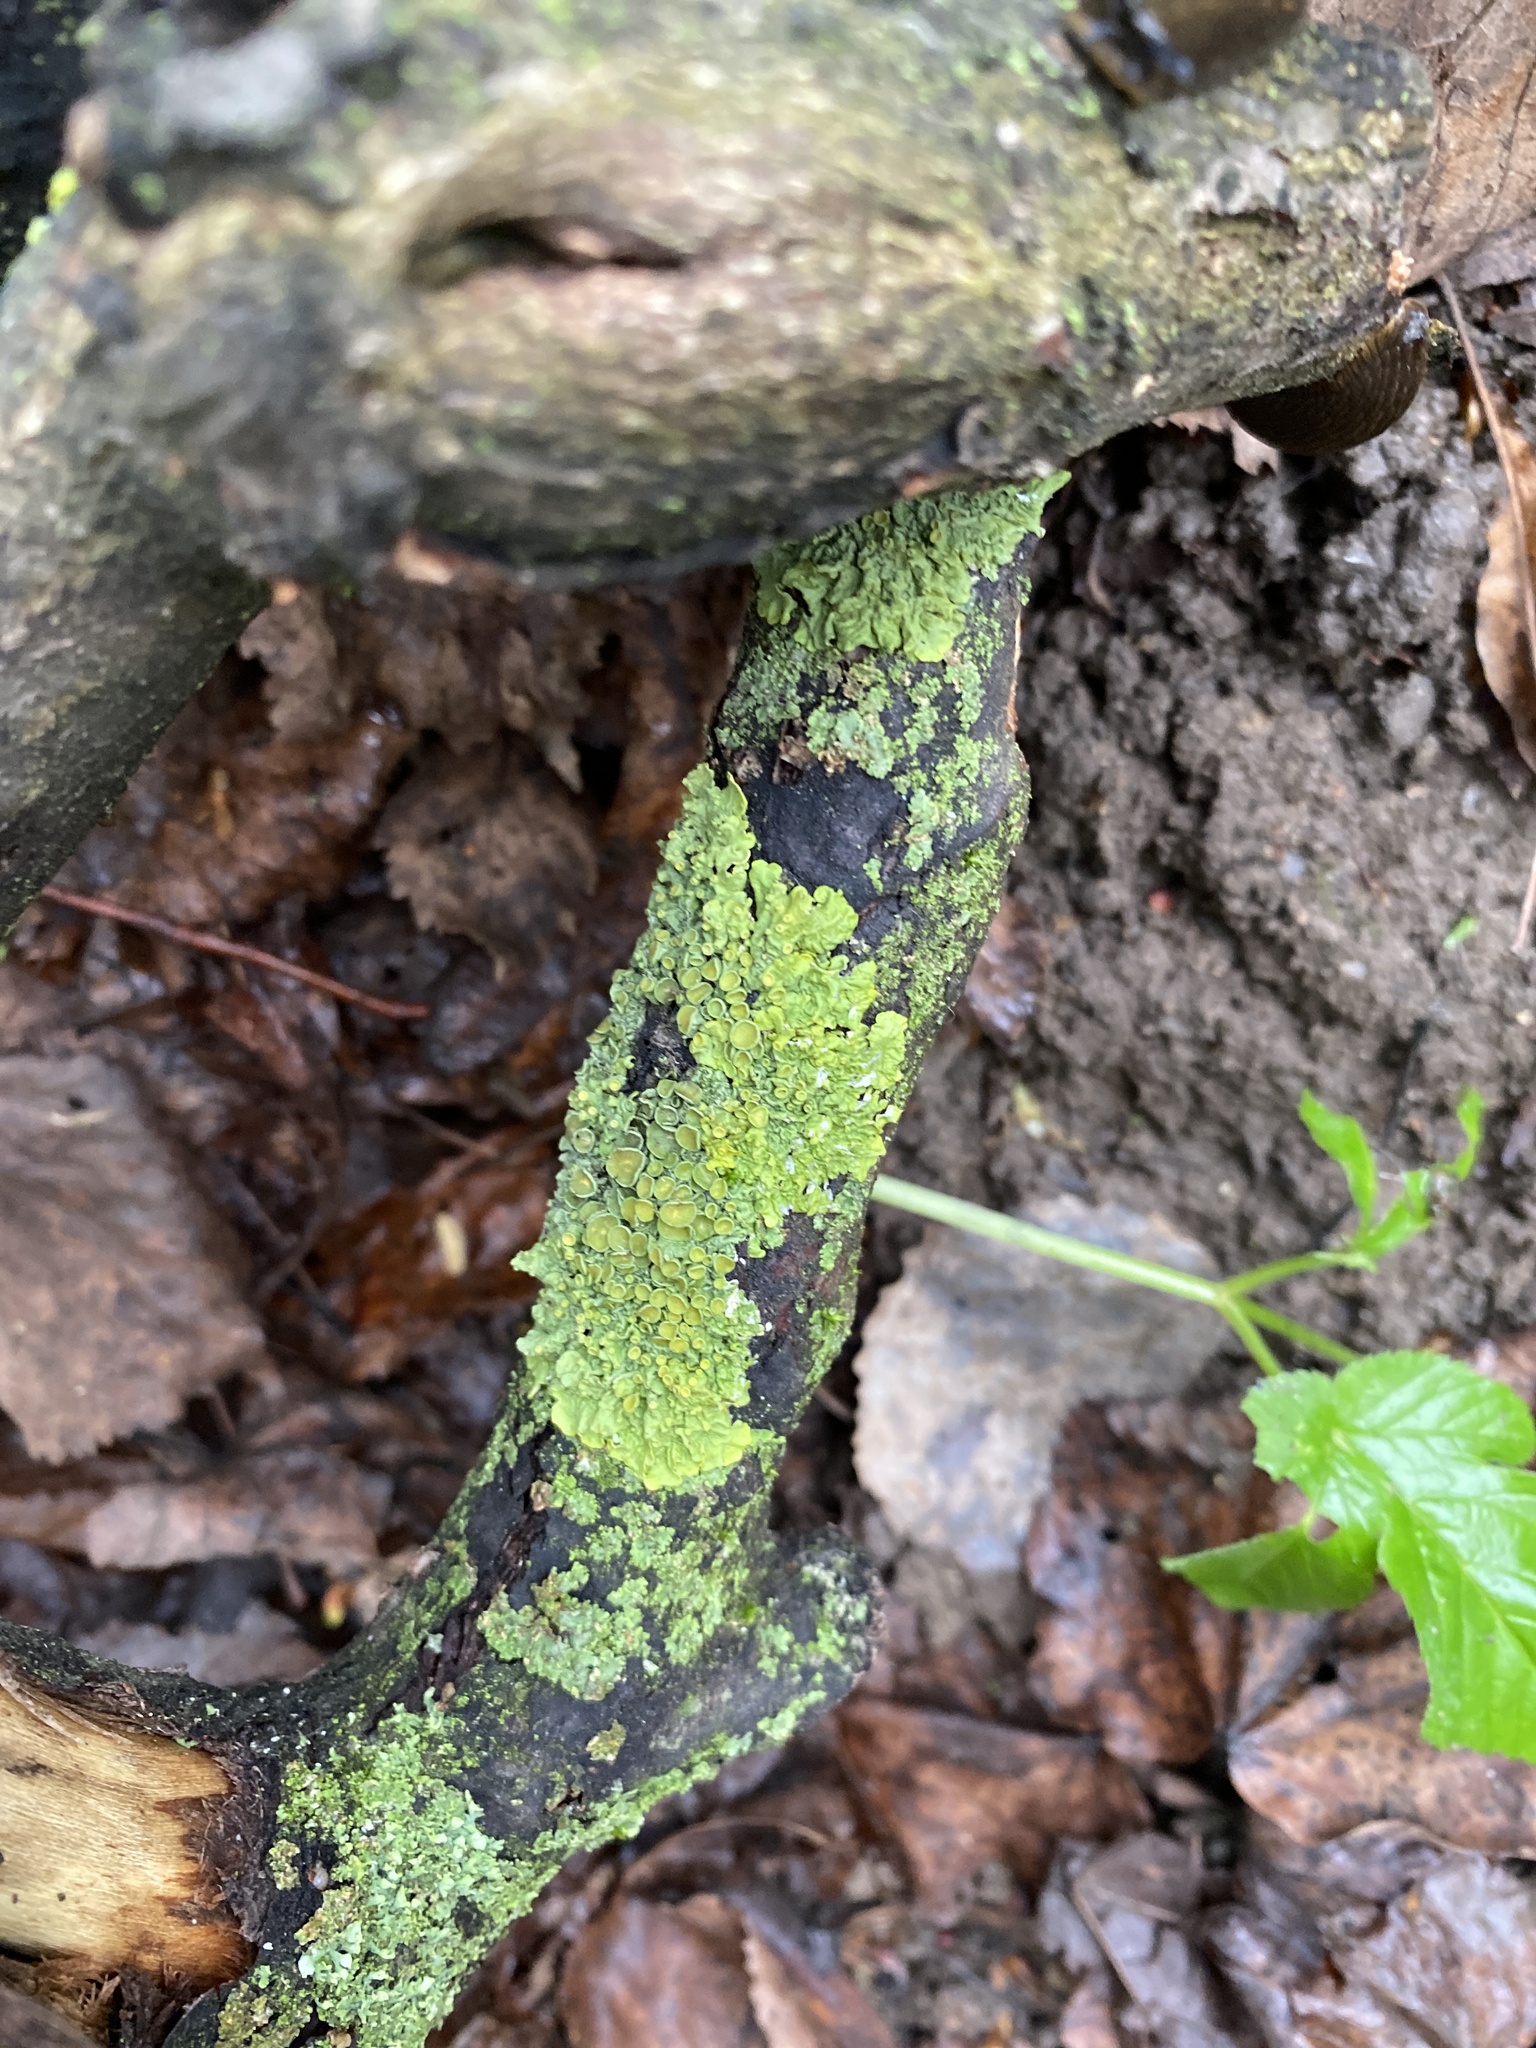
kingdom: Fungi
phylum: Ascomycota
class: Lecanoromycetes
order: Teloschistales
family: Teloschistaceae
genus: Xanthoria
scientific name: Xanthoria parietina
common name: Common orange lichen
